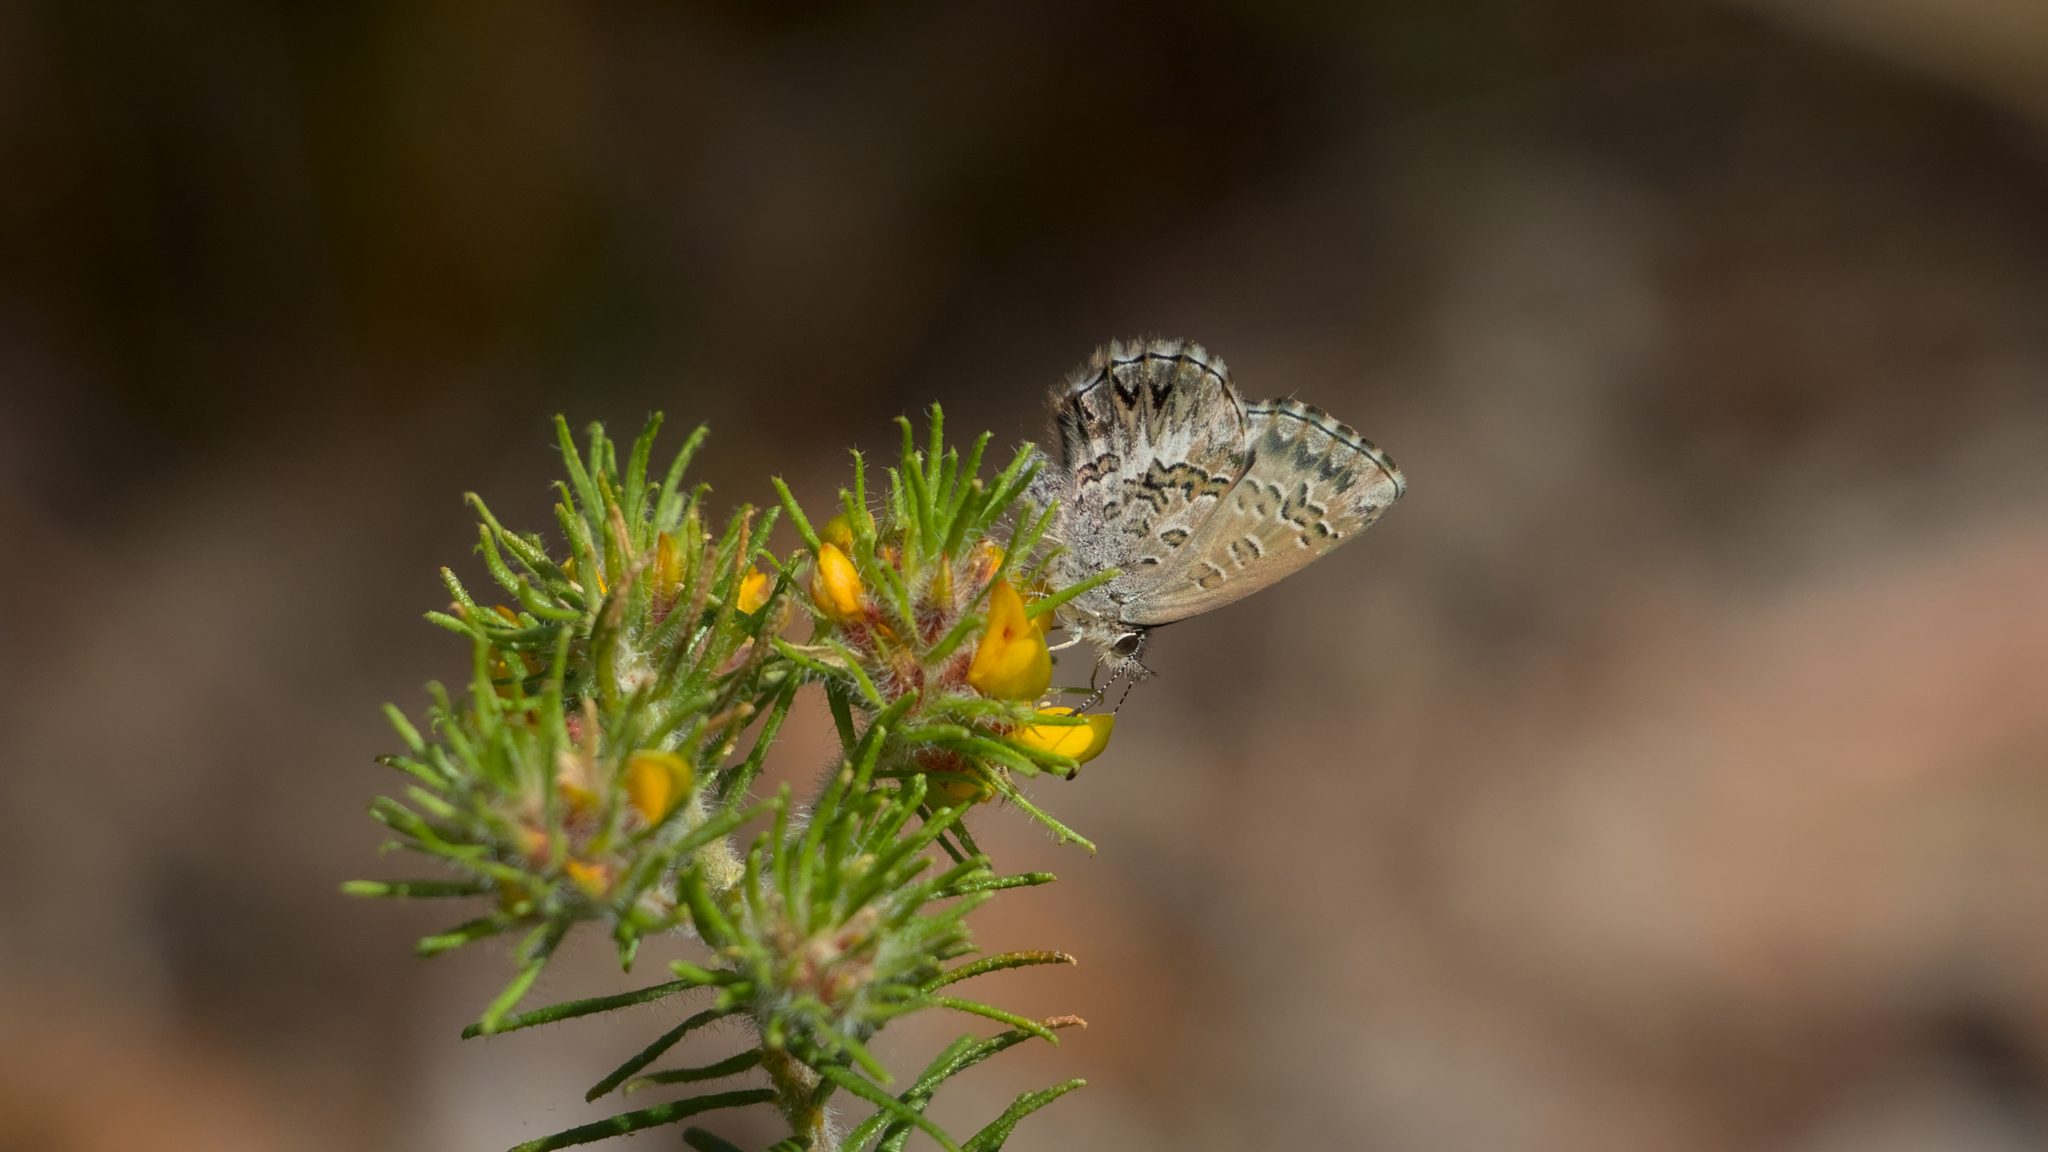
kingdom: Animalia
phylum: Arthropoda
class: Insecta
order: Lepidoptera
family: Lycaenidae
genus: Neolucia
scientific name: Neolucia agricola
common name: Fringed blue
